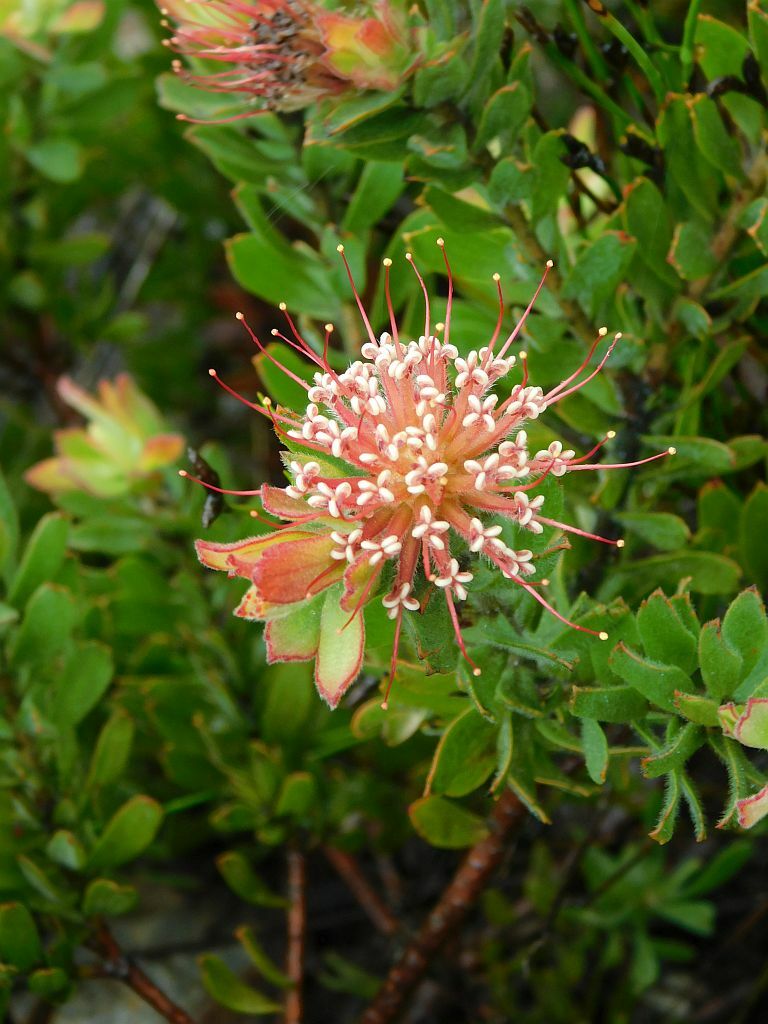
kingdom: Plantae
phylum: Tracheophyta
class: Magnoliopsida
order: Proteales
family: Proteaceae
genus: Leucospermum
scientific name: Leucospermum calligerum
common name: Arid pincushion
